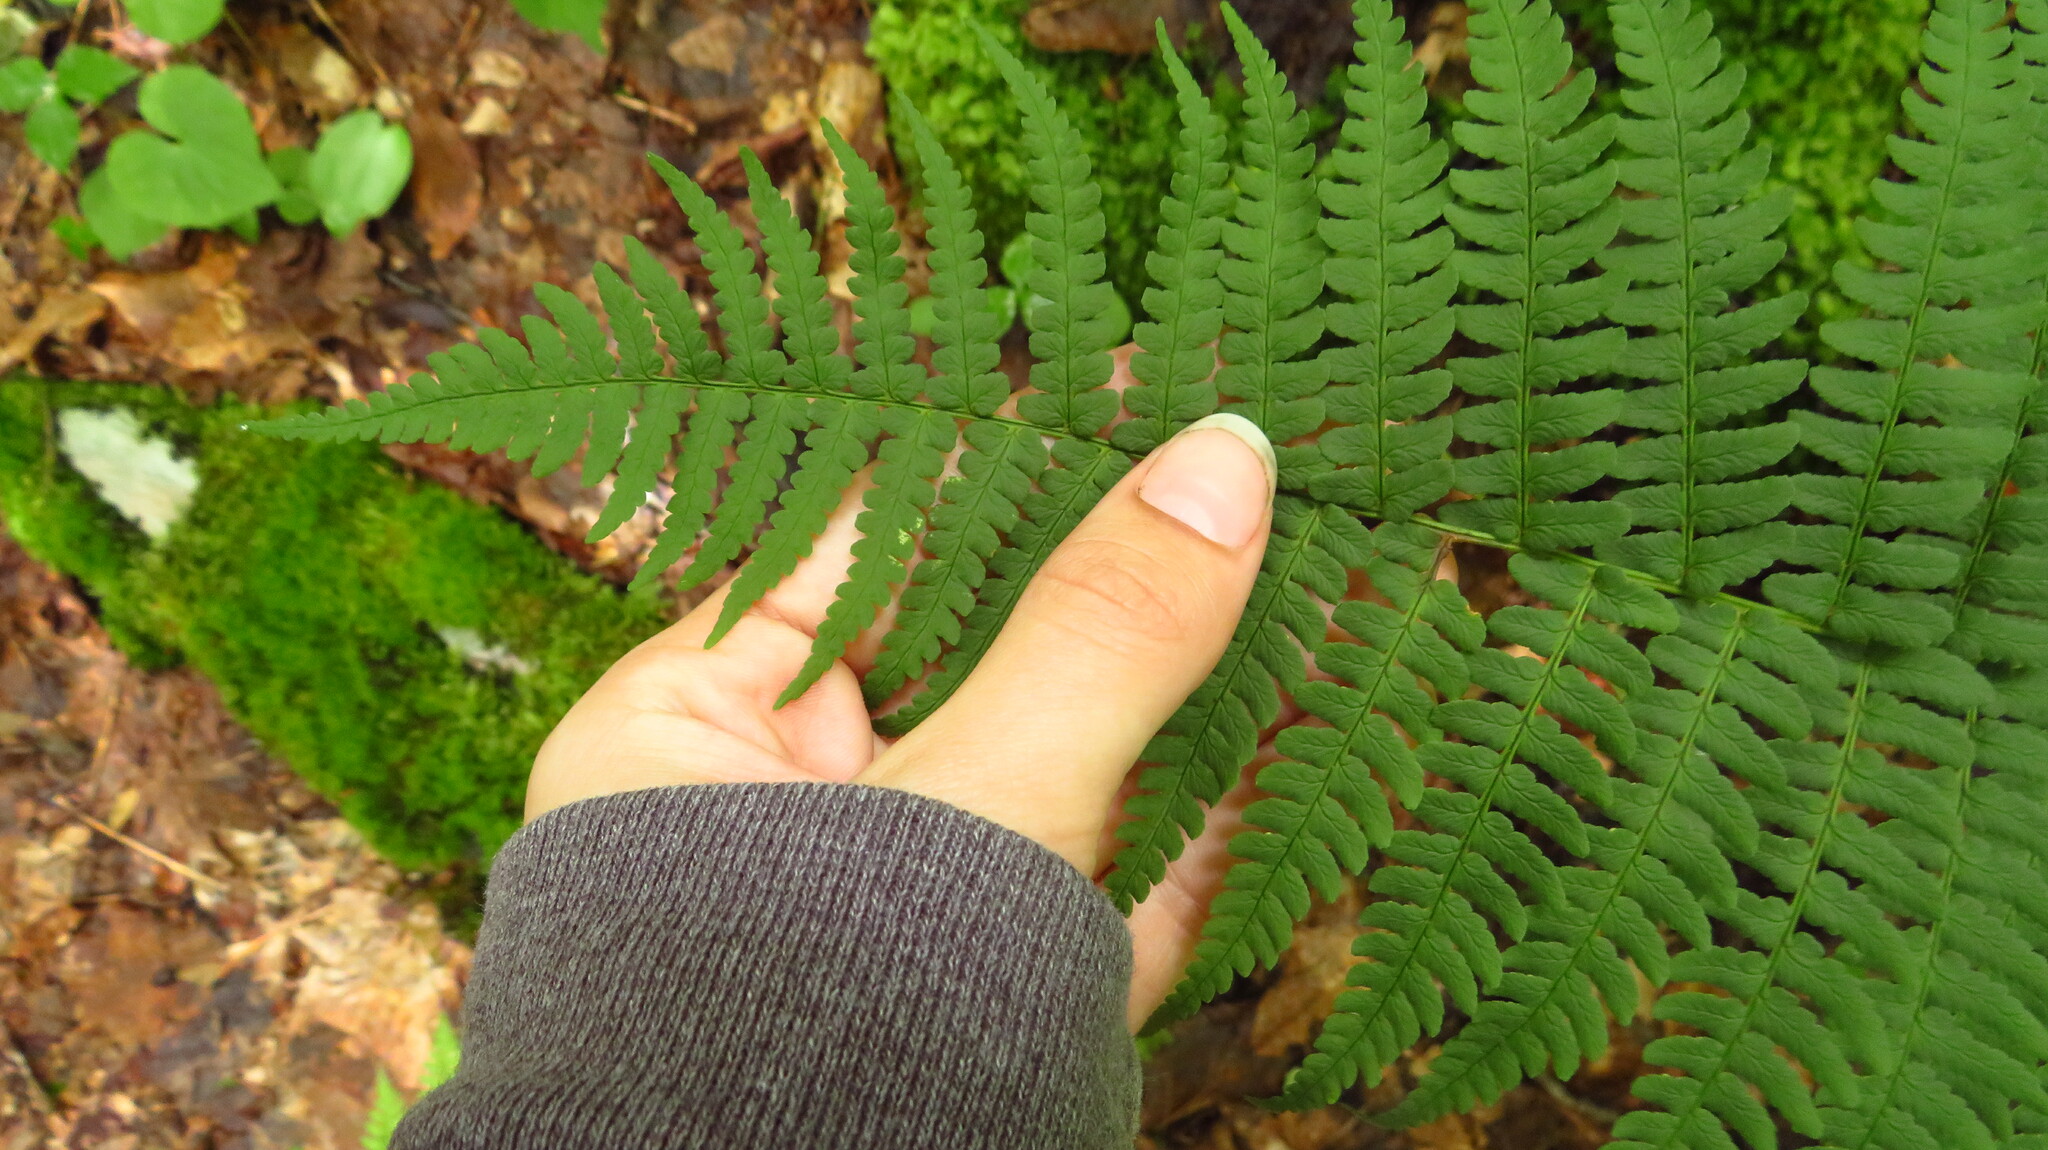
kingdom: Plantae
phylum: Tracheophyta
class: Polypodiopsida
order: Polypodiales
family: Dryopteridaceae
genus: Dryopteris
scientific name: Dryopteris marginalis
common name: Marginal wood fern
